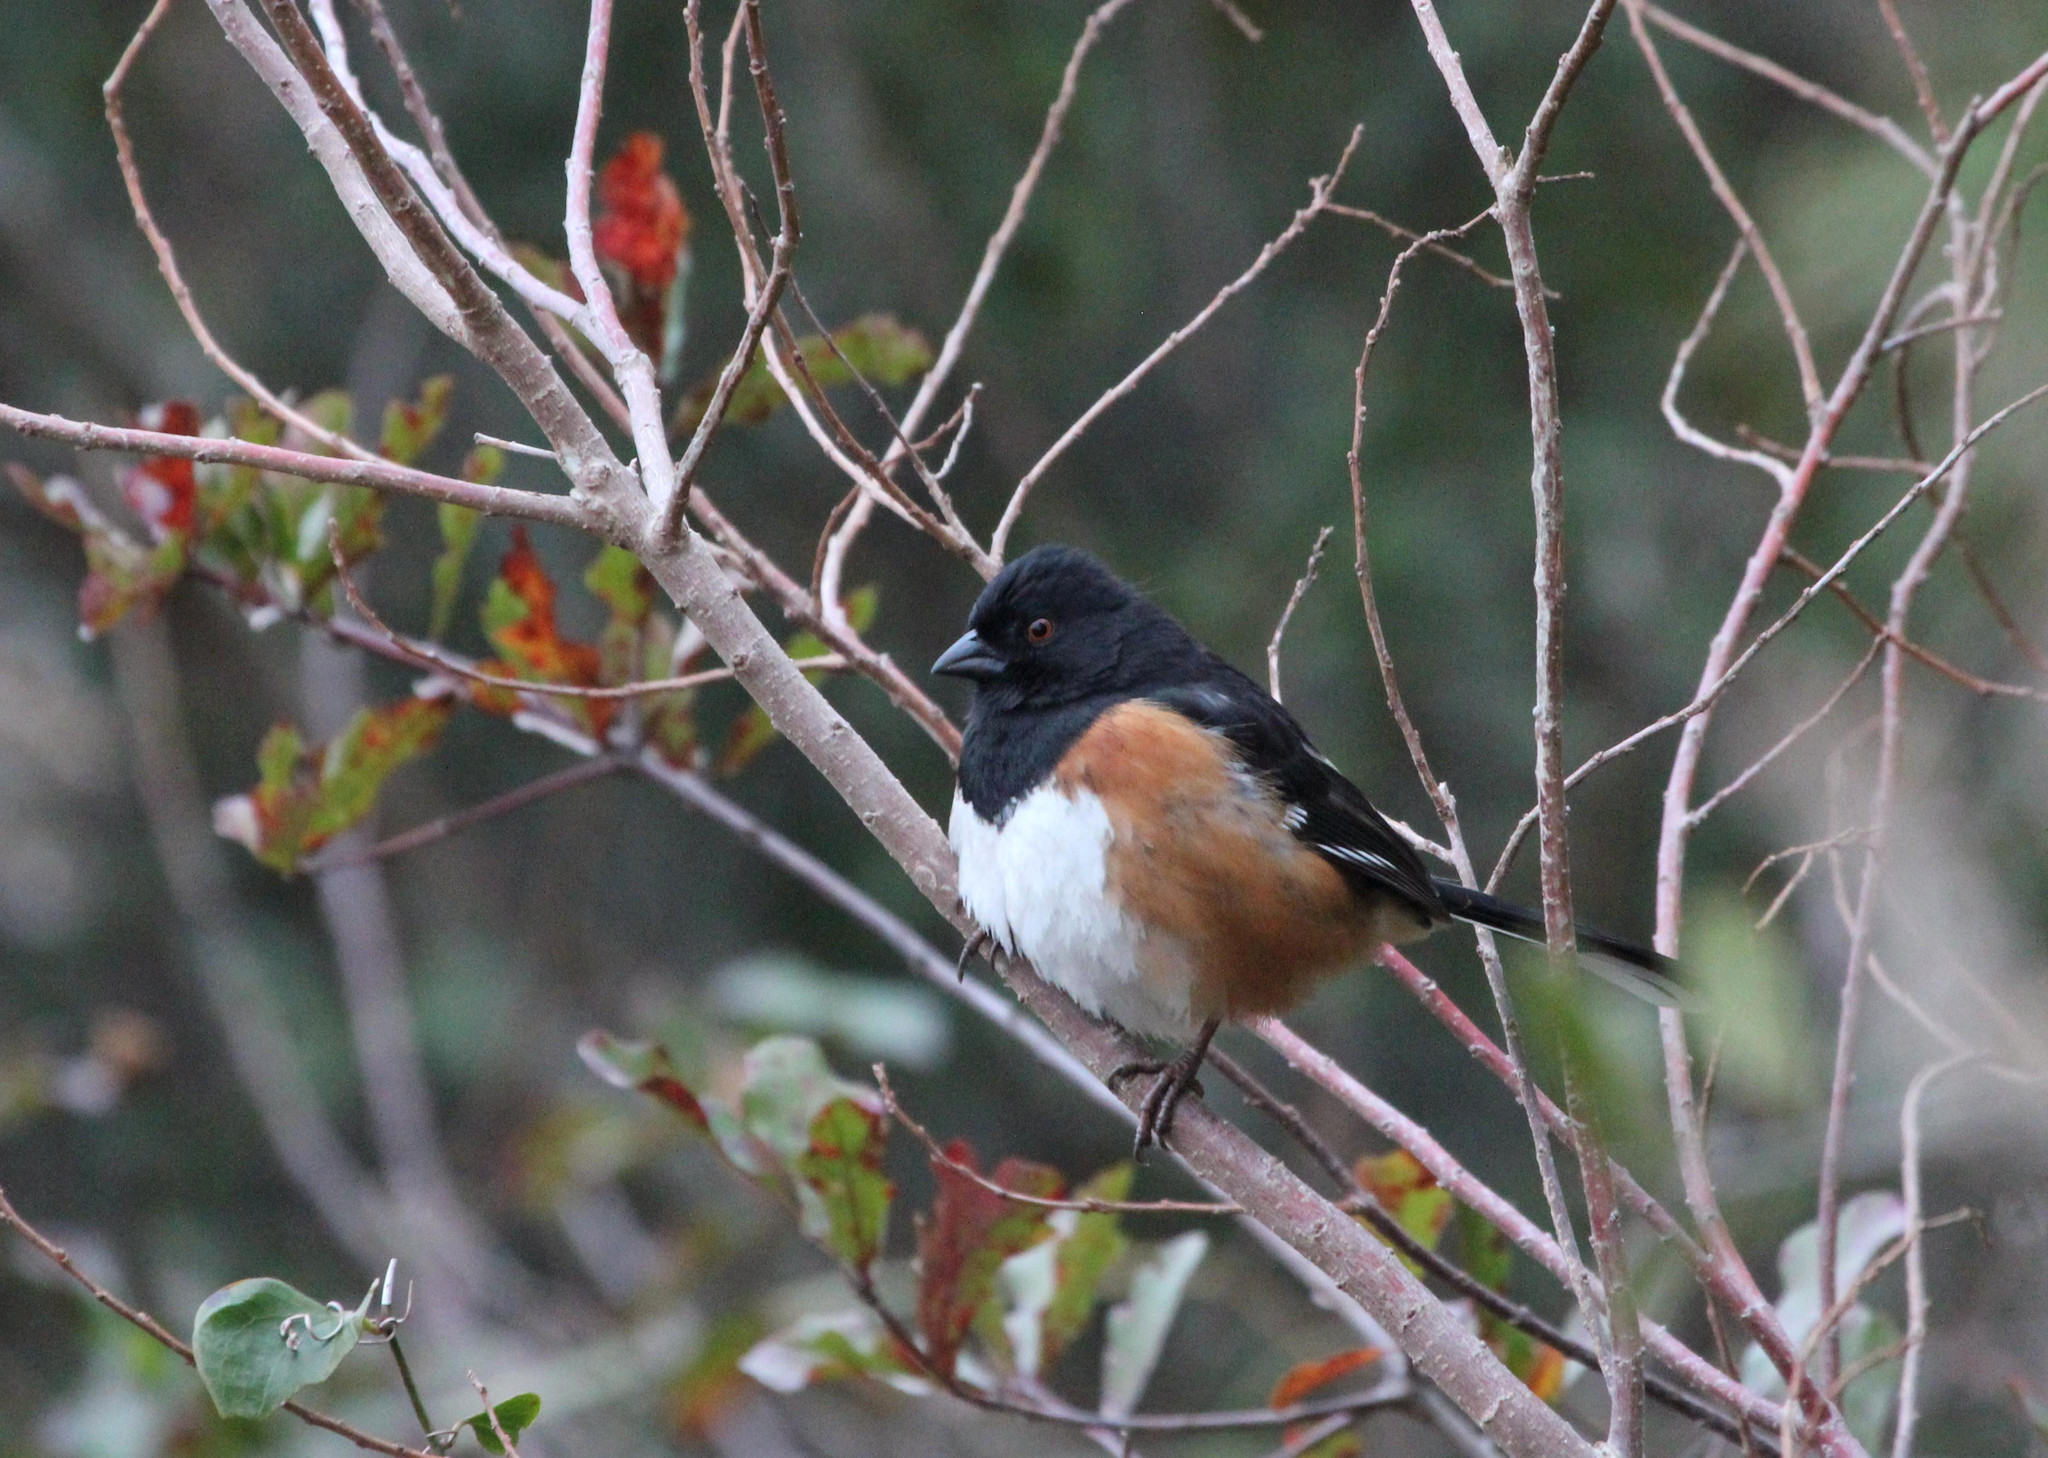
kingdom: Animalia
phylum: Chordata
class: Aves
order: Passeriformes
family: Passerellidae
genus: Pipilo
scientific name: Pipilo erythrophthalmus
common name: Eastern towhee
